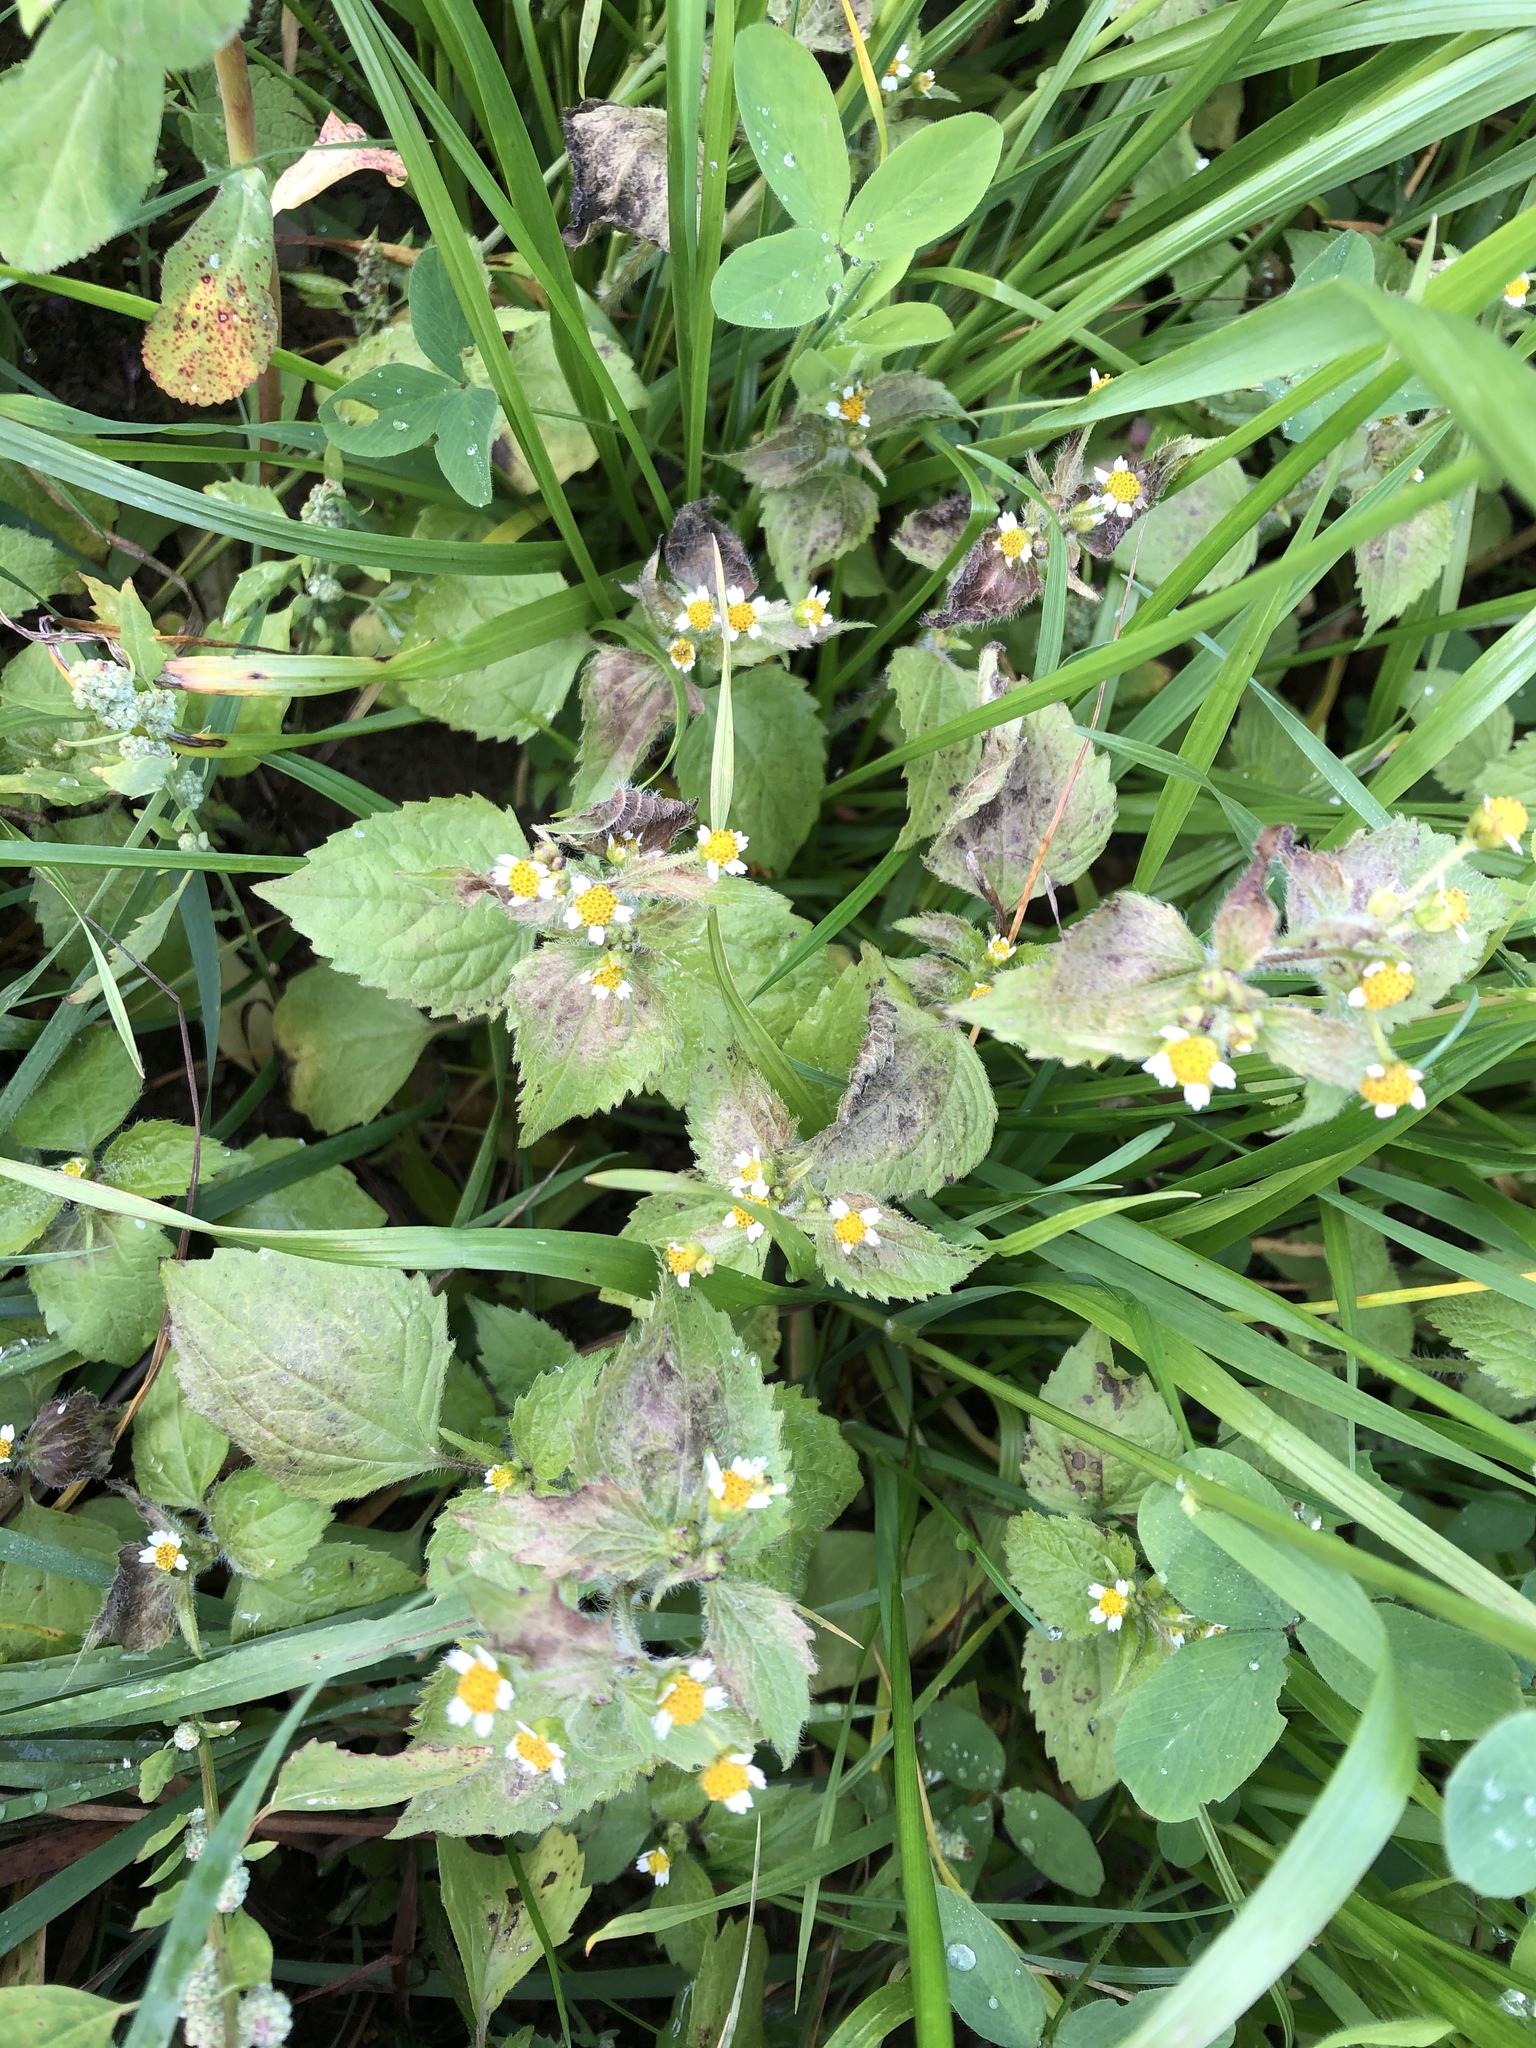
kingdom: Plantae
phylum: Tracheophyta
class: Magnoliopsida
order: Asterales
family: Asteraceae
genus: Galinsoga
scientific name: Galinsoga quadriradiata
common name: Shaggy soldier
